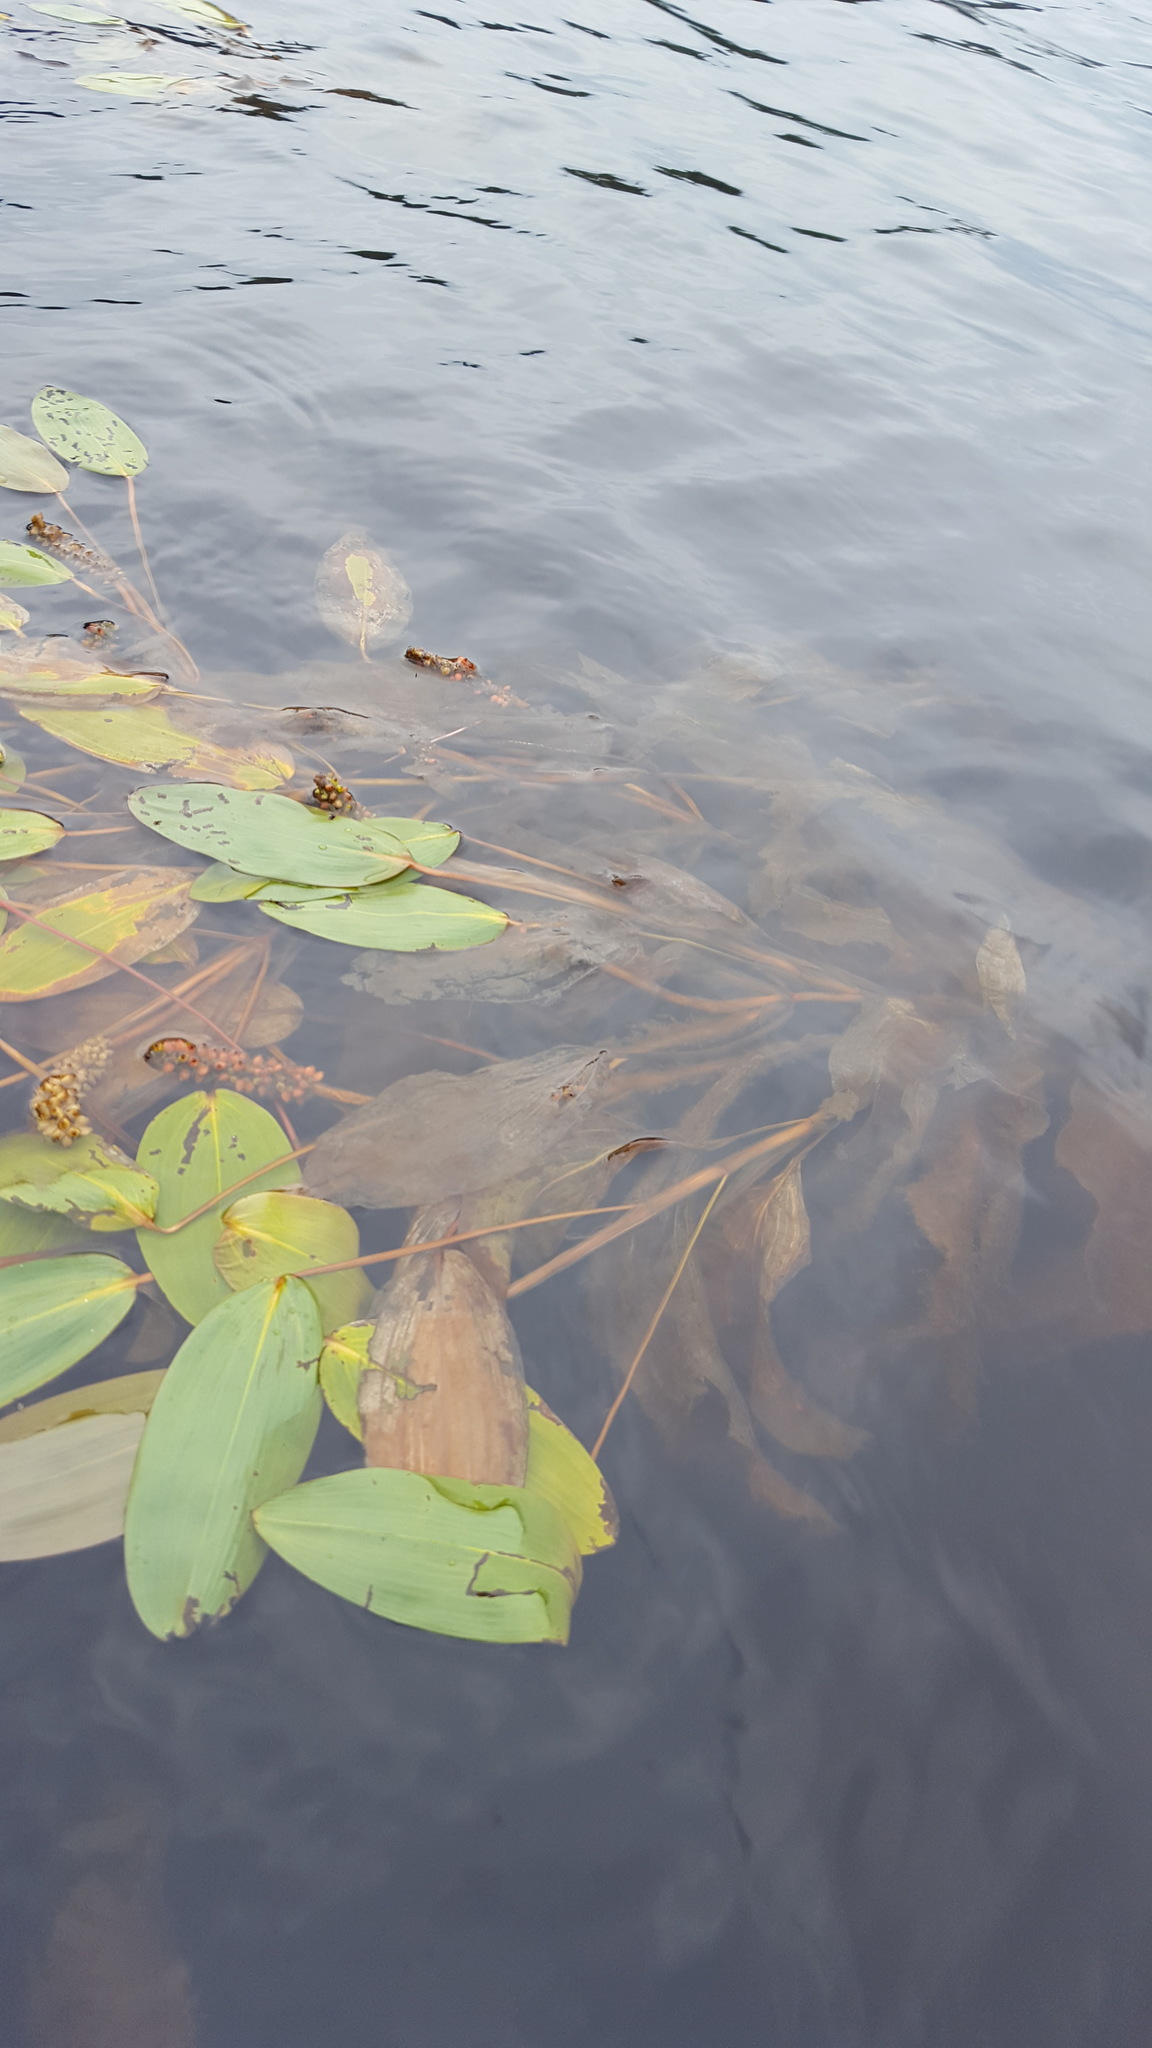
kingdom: Plantae
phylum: Tracheophyta
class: Liliopsida
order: Alismatales
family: Potamogetonaceae
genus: Potamogeton
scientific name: Potamogeton amplifolius
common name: Broad-leaved pondweed
